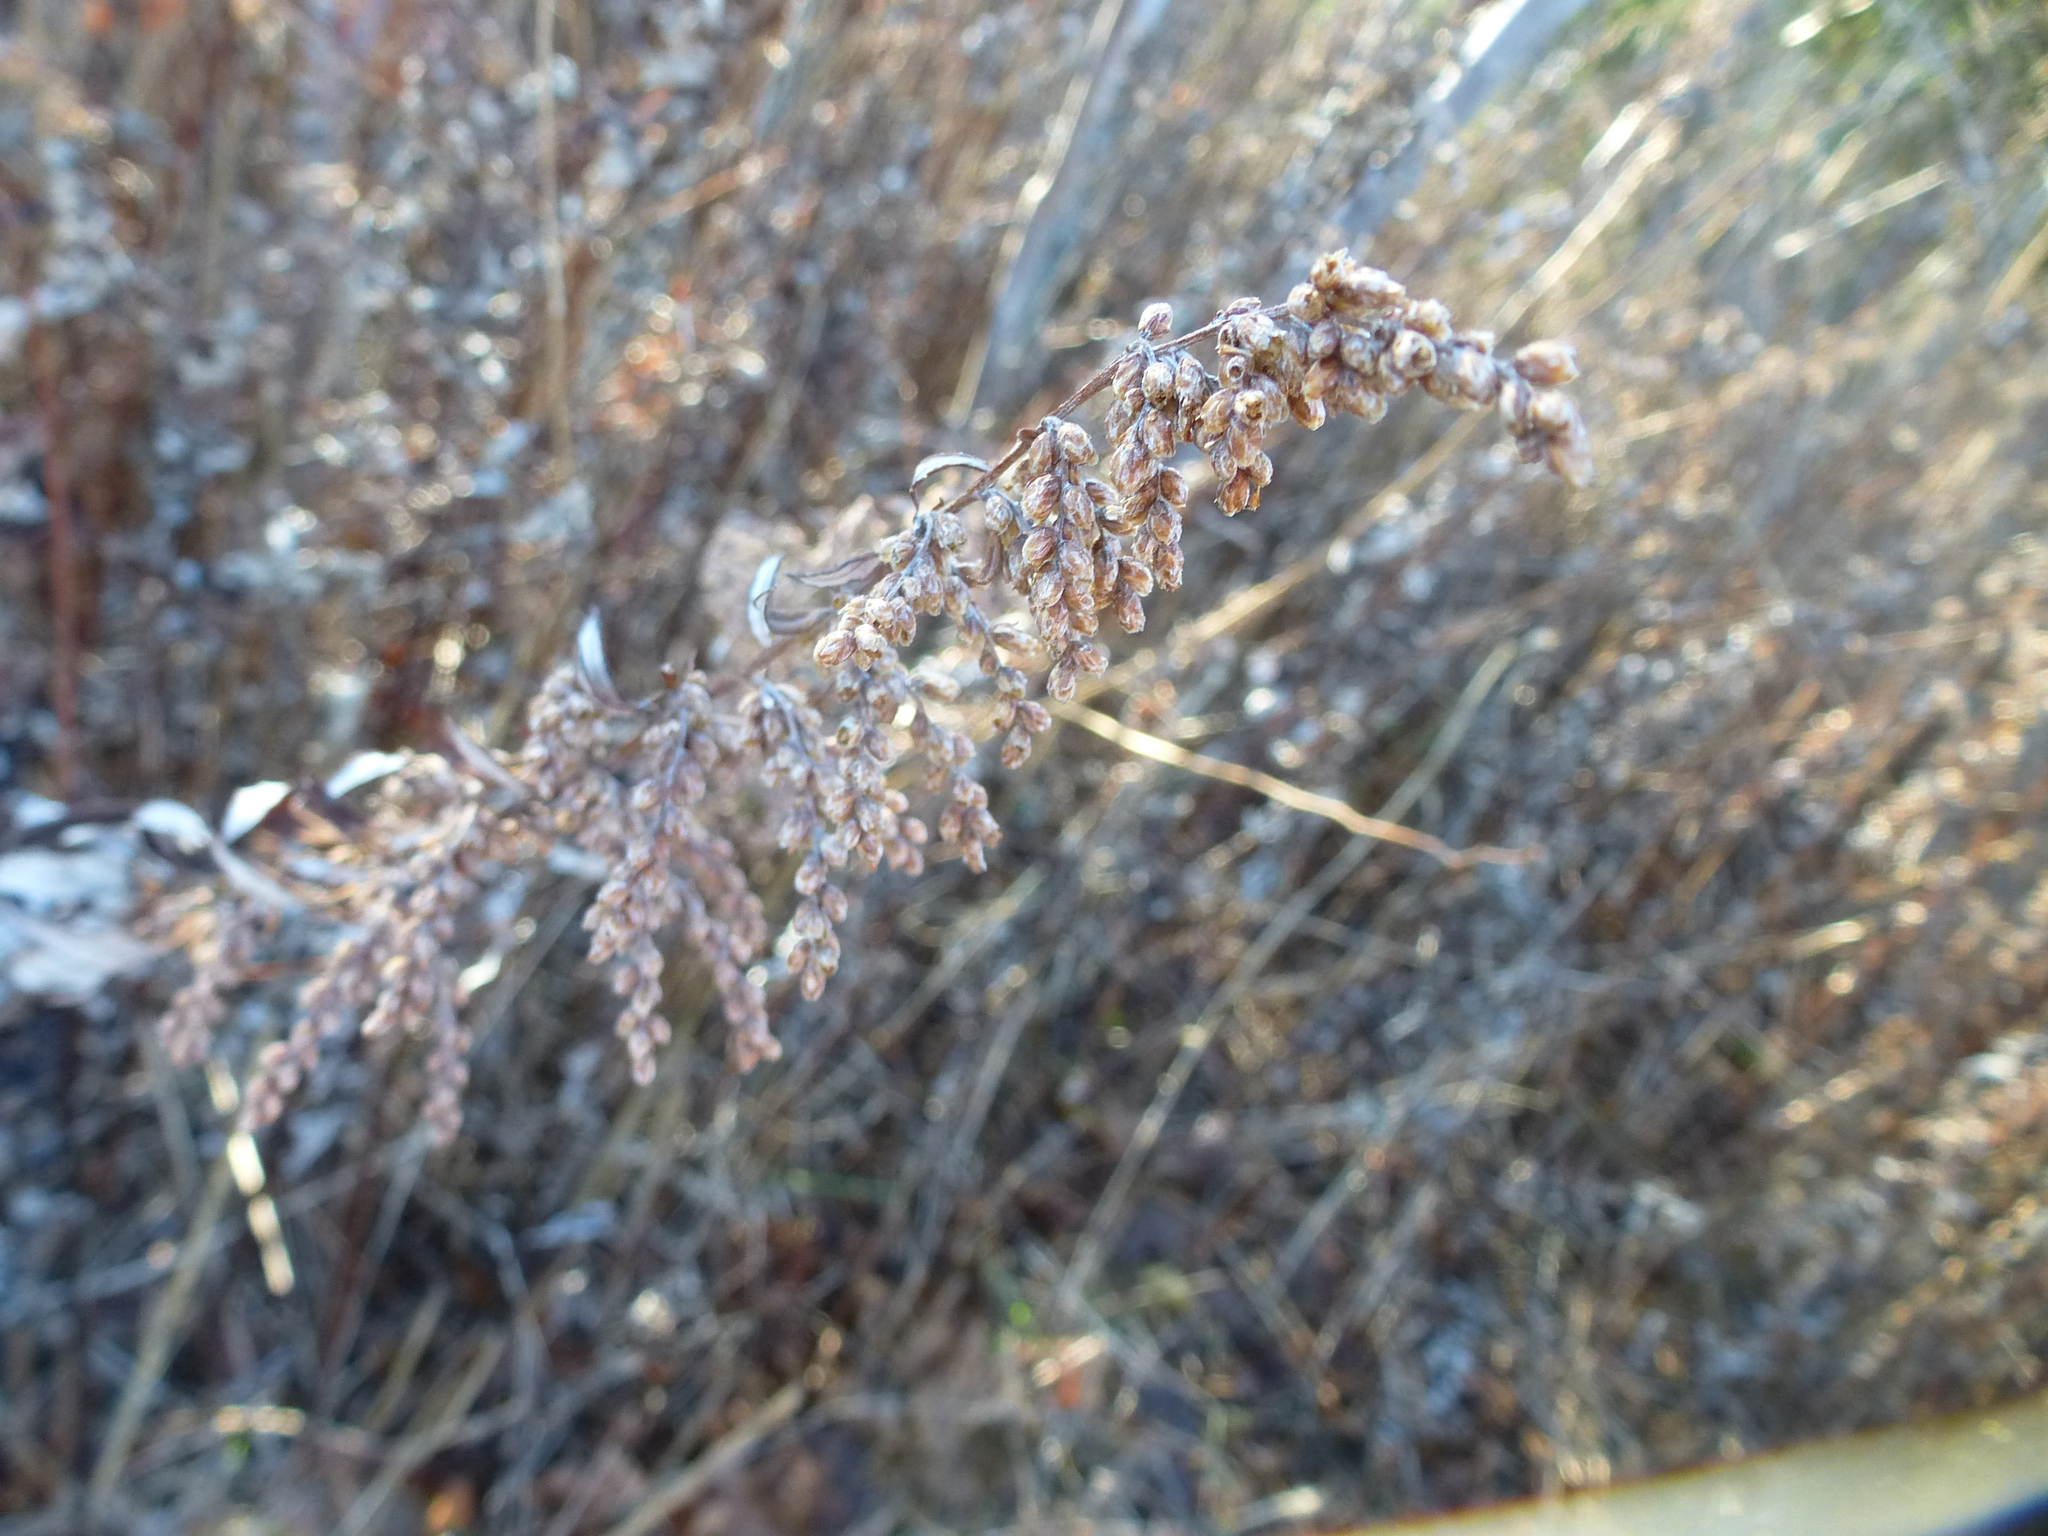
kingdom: Plantae
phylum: Tracheophyta
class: Magnoliopsida
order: Asterales
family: Asteraceae
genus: Artemisia
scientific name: Artemisia vulgaris
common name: Mugwort
